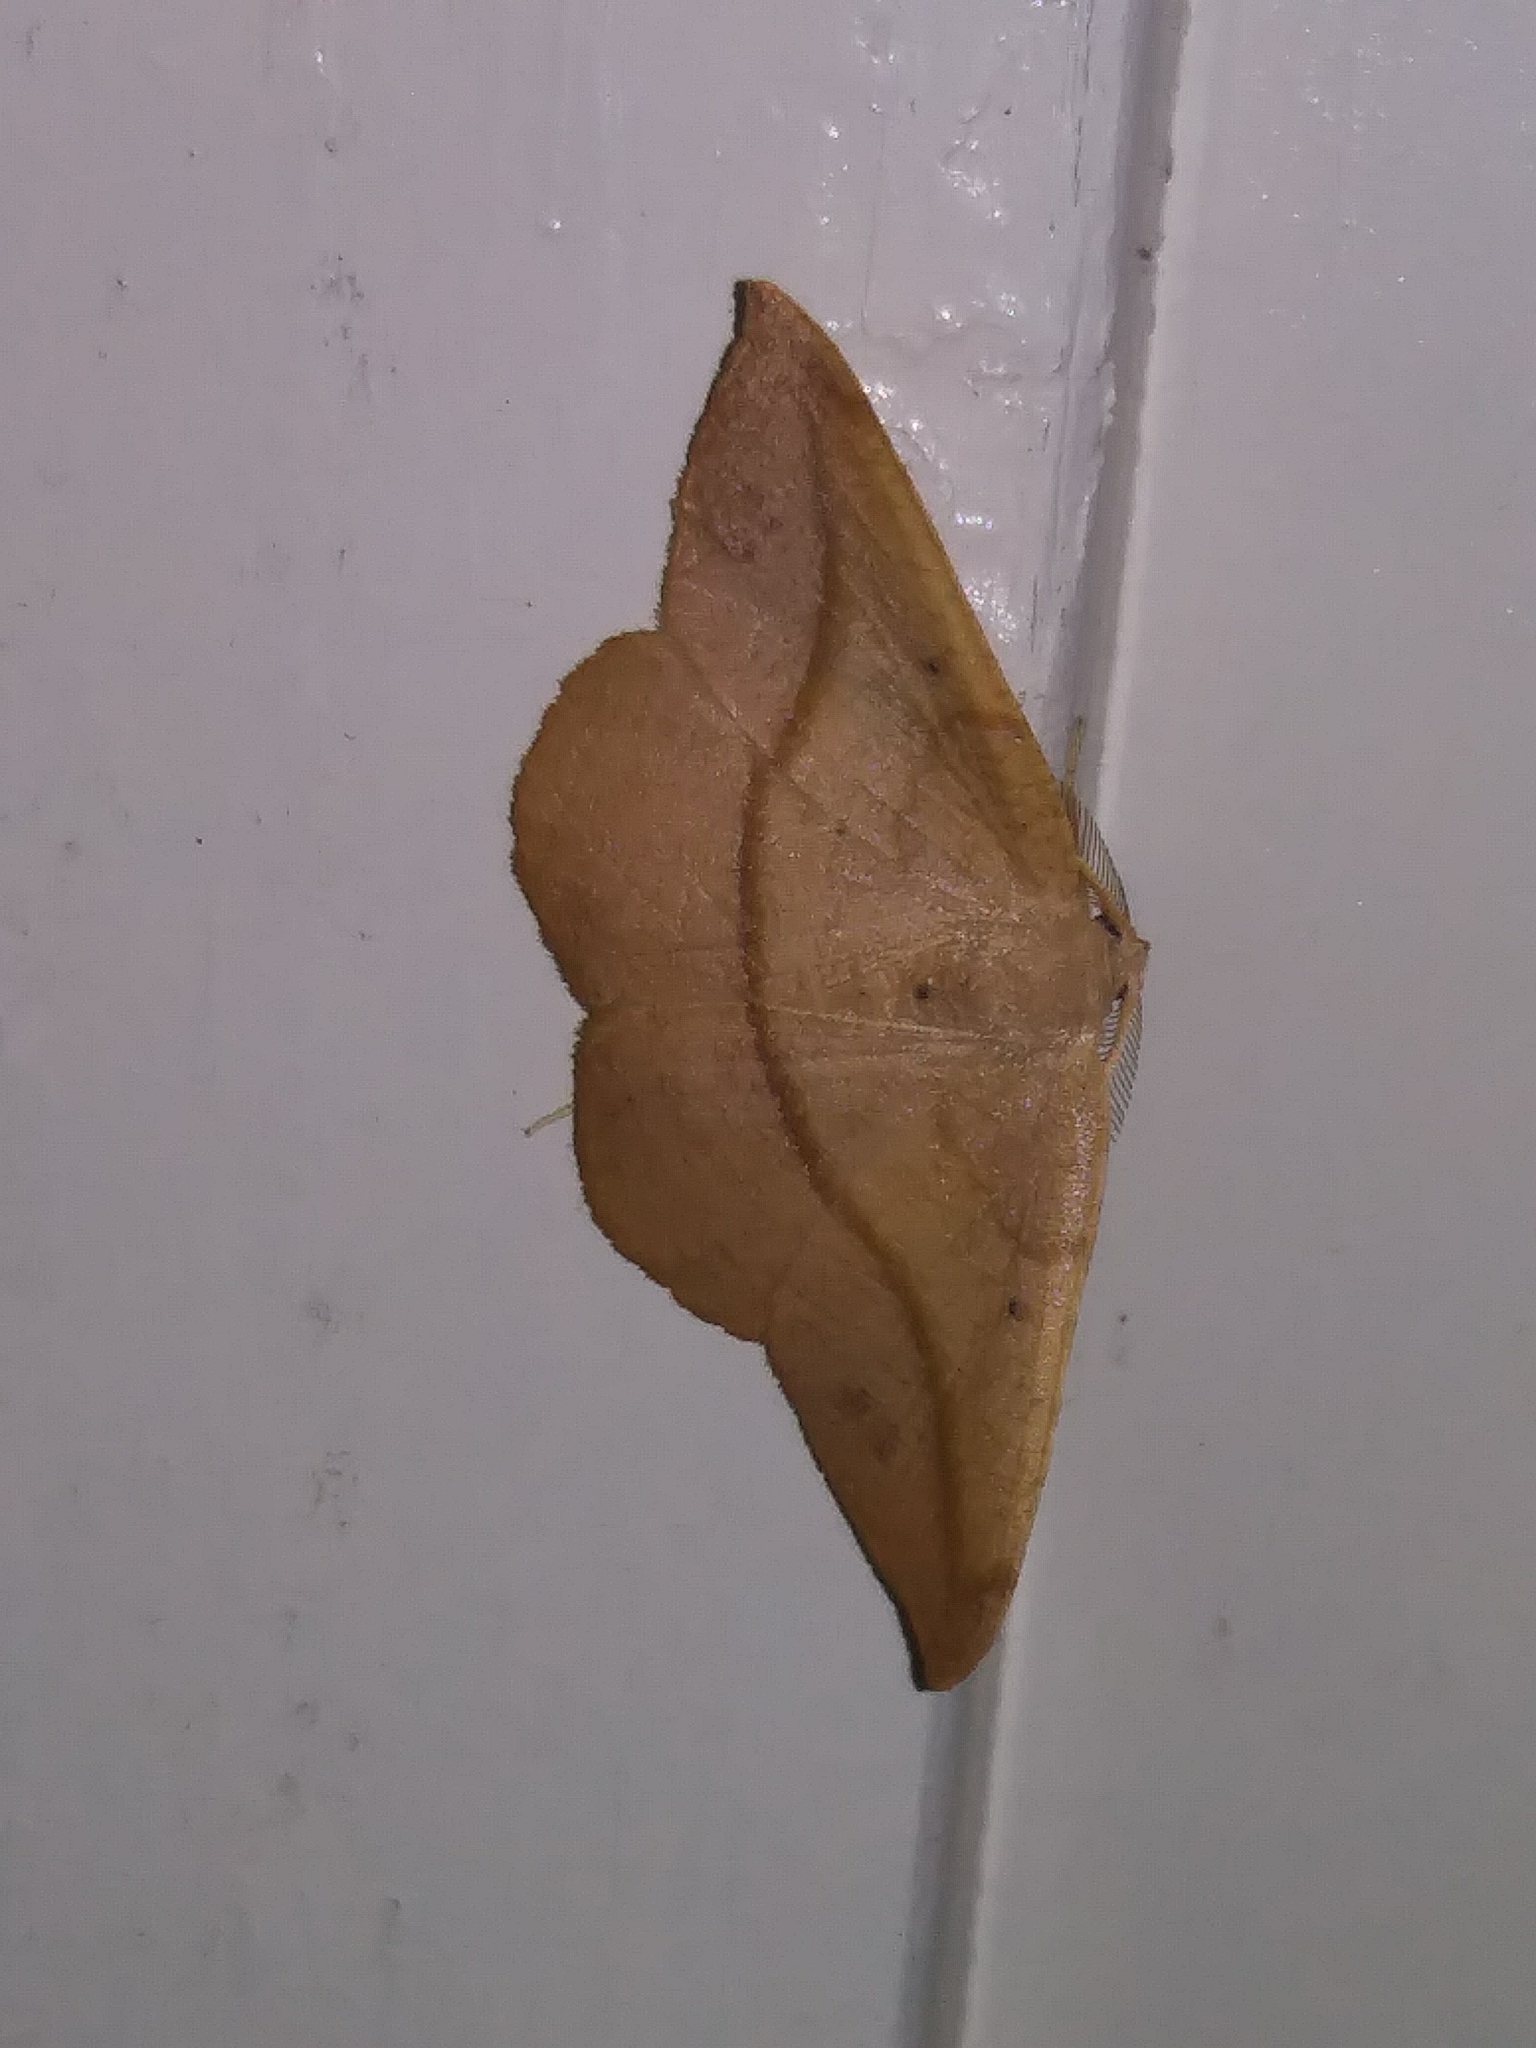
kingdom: Animalia
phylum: Arthropoda
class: Insecta
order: Lepidoptera
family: Geometridae
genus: Patalene
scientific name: Patalene olyzonaria
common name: Juniper geometer moth
